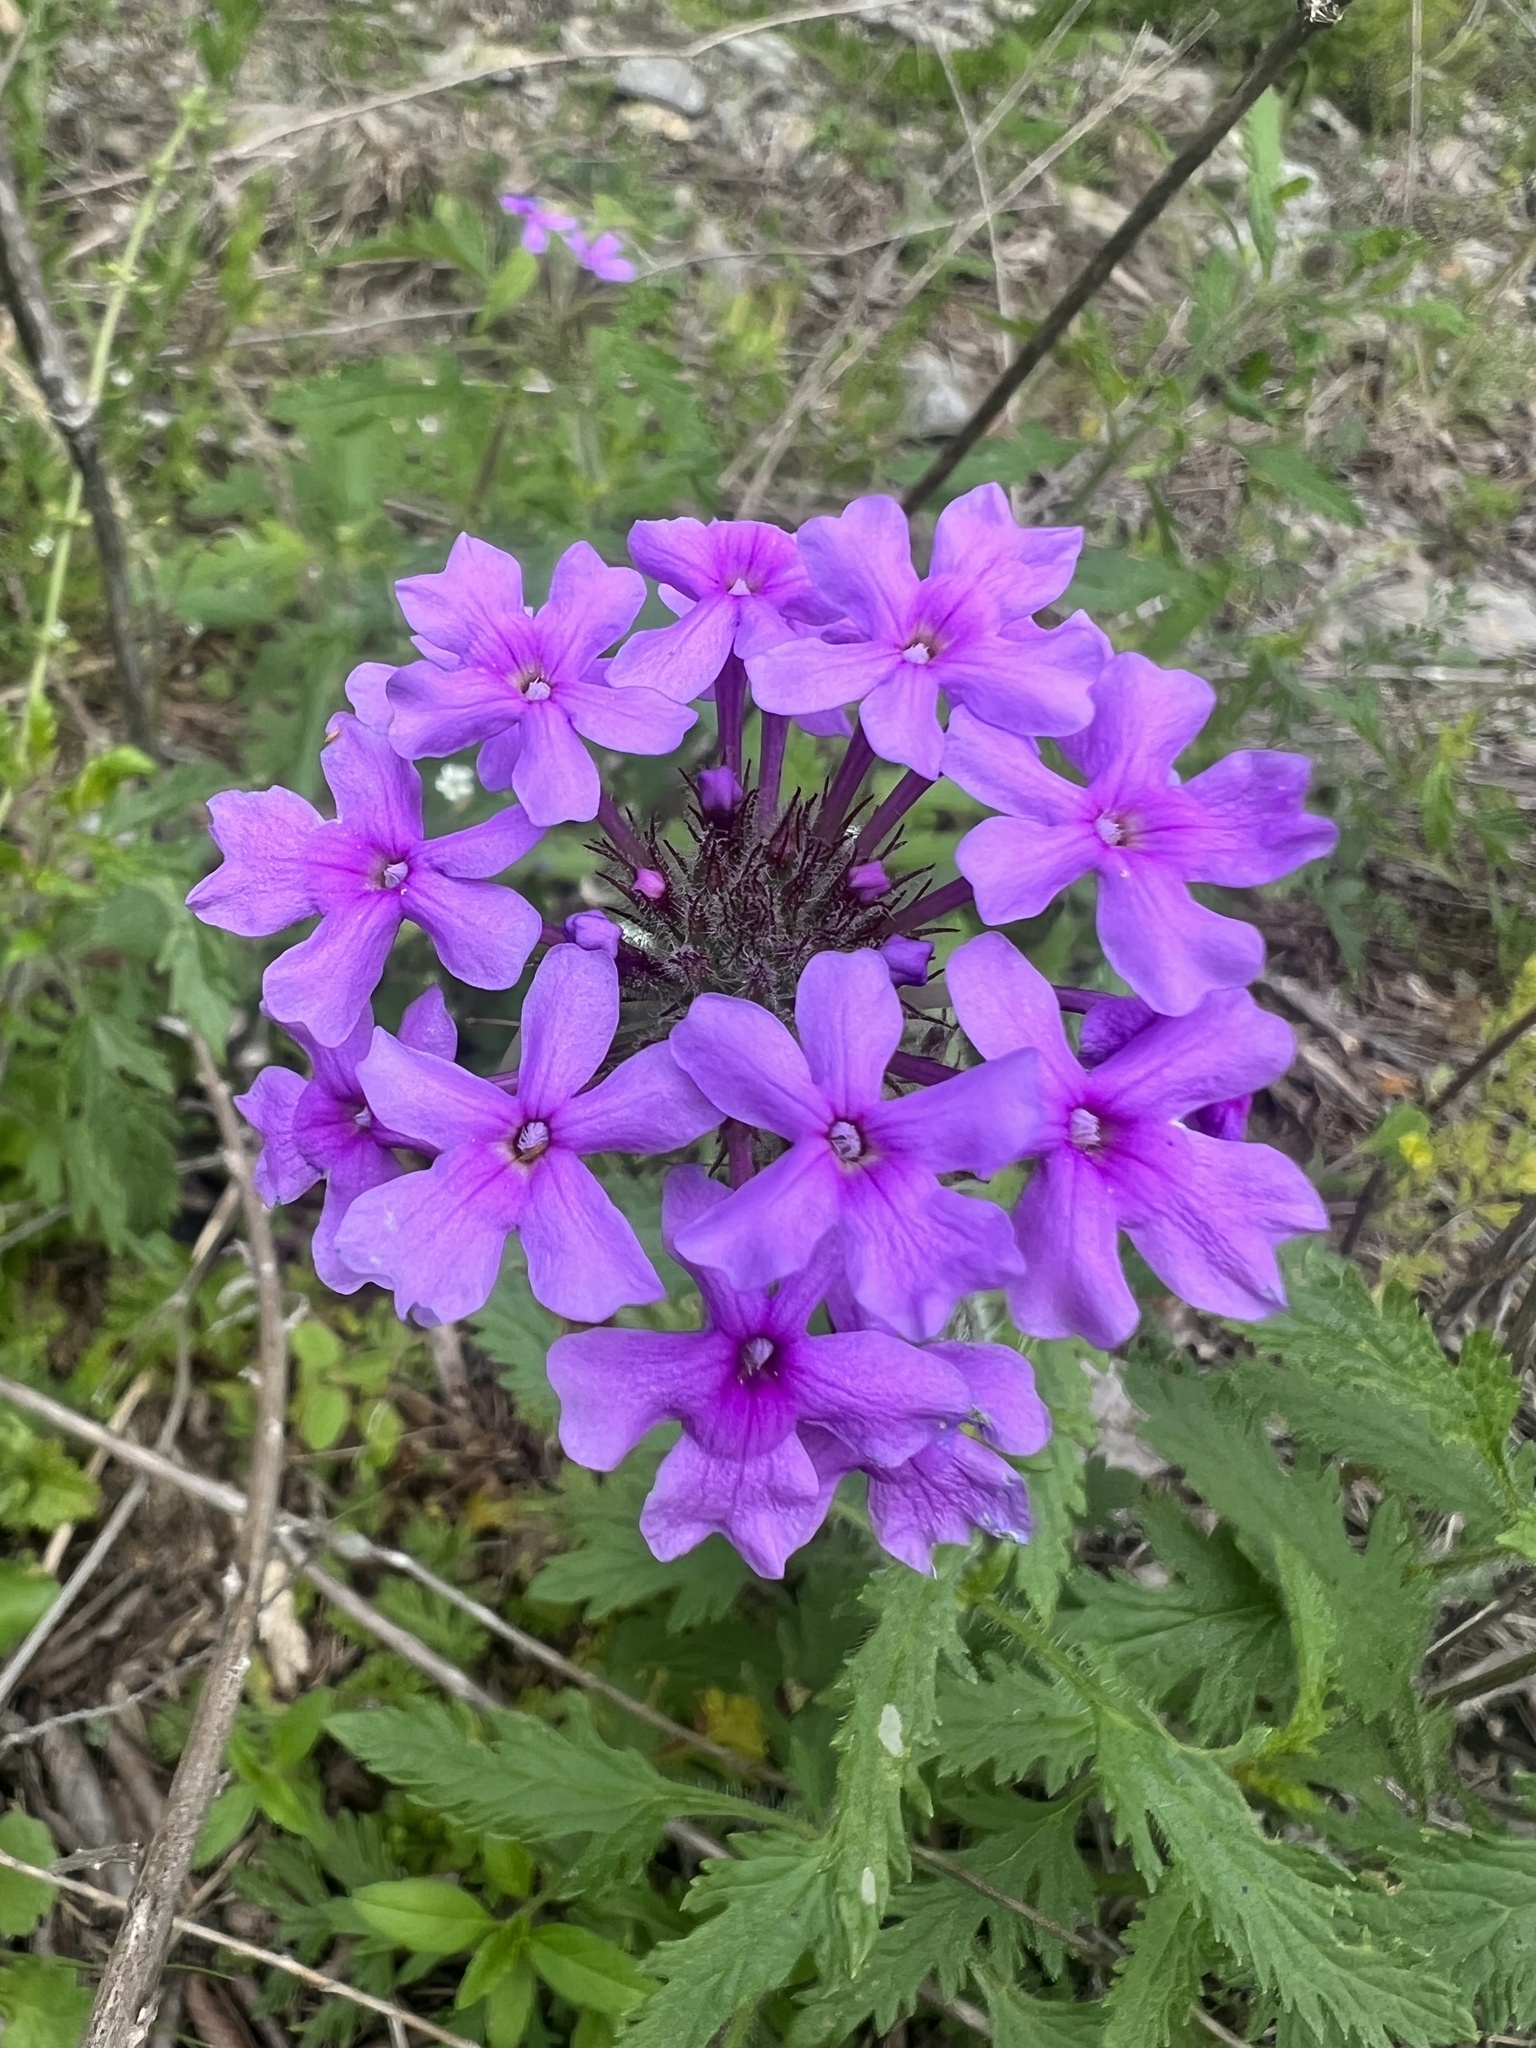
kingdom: Plantae
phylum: Tracheophyta
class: Magnoliopsida
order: Lamiales
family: Verbenaceae
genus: Verbena
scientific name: Verbena canadensis
